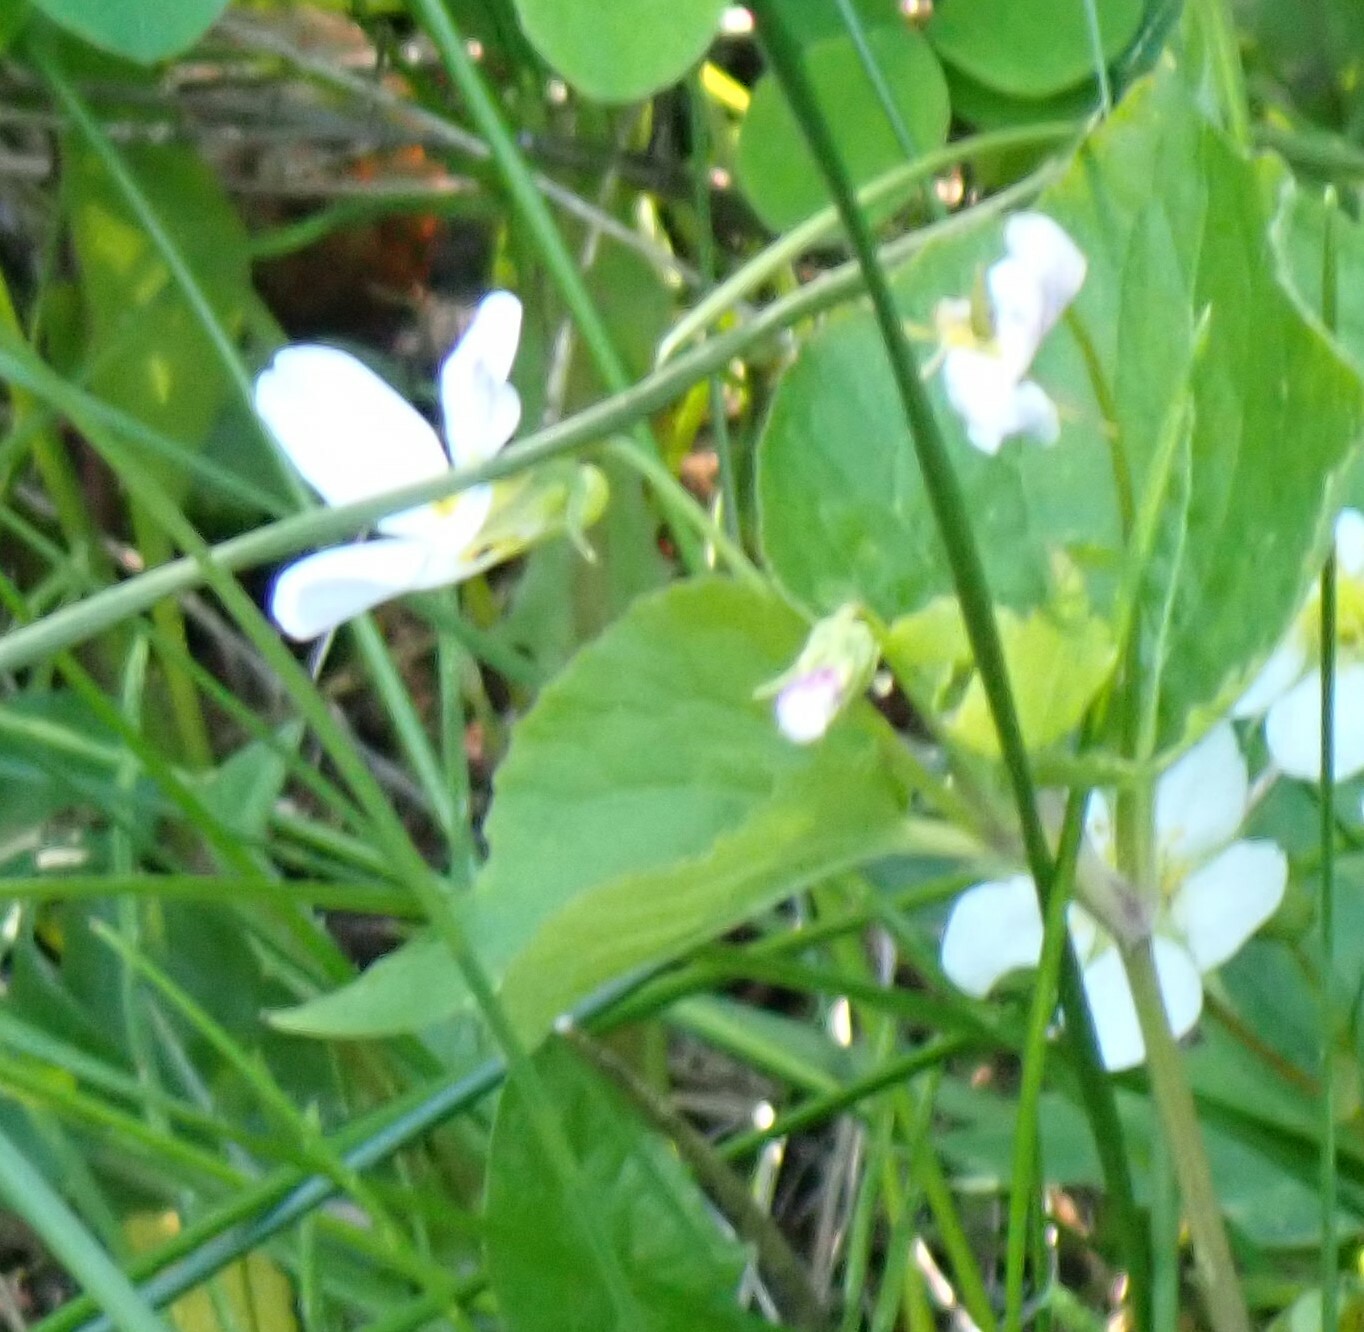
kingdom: Plantae
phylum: Tracheophyta
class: Magnoliopsida
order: Malpighiales
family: Violaceae
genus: Viola
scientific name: Viola canadensis
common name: Canada violet
